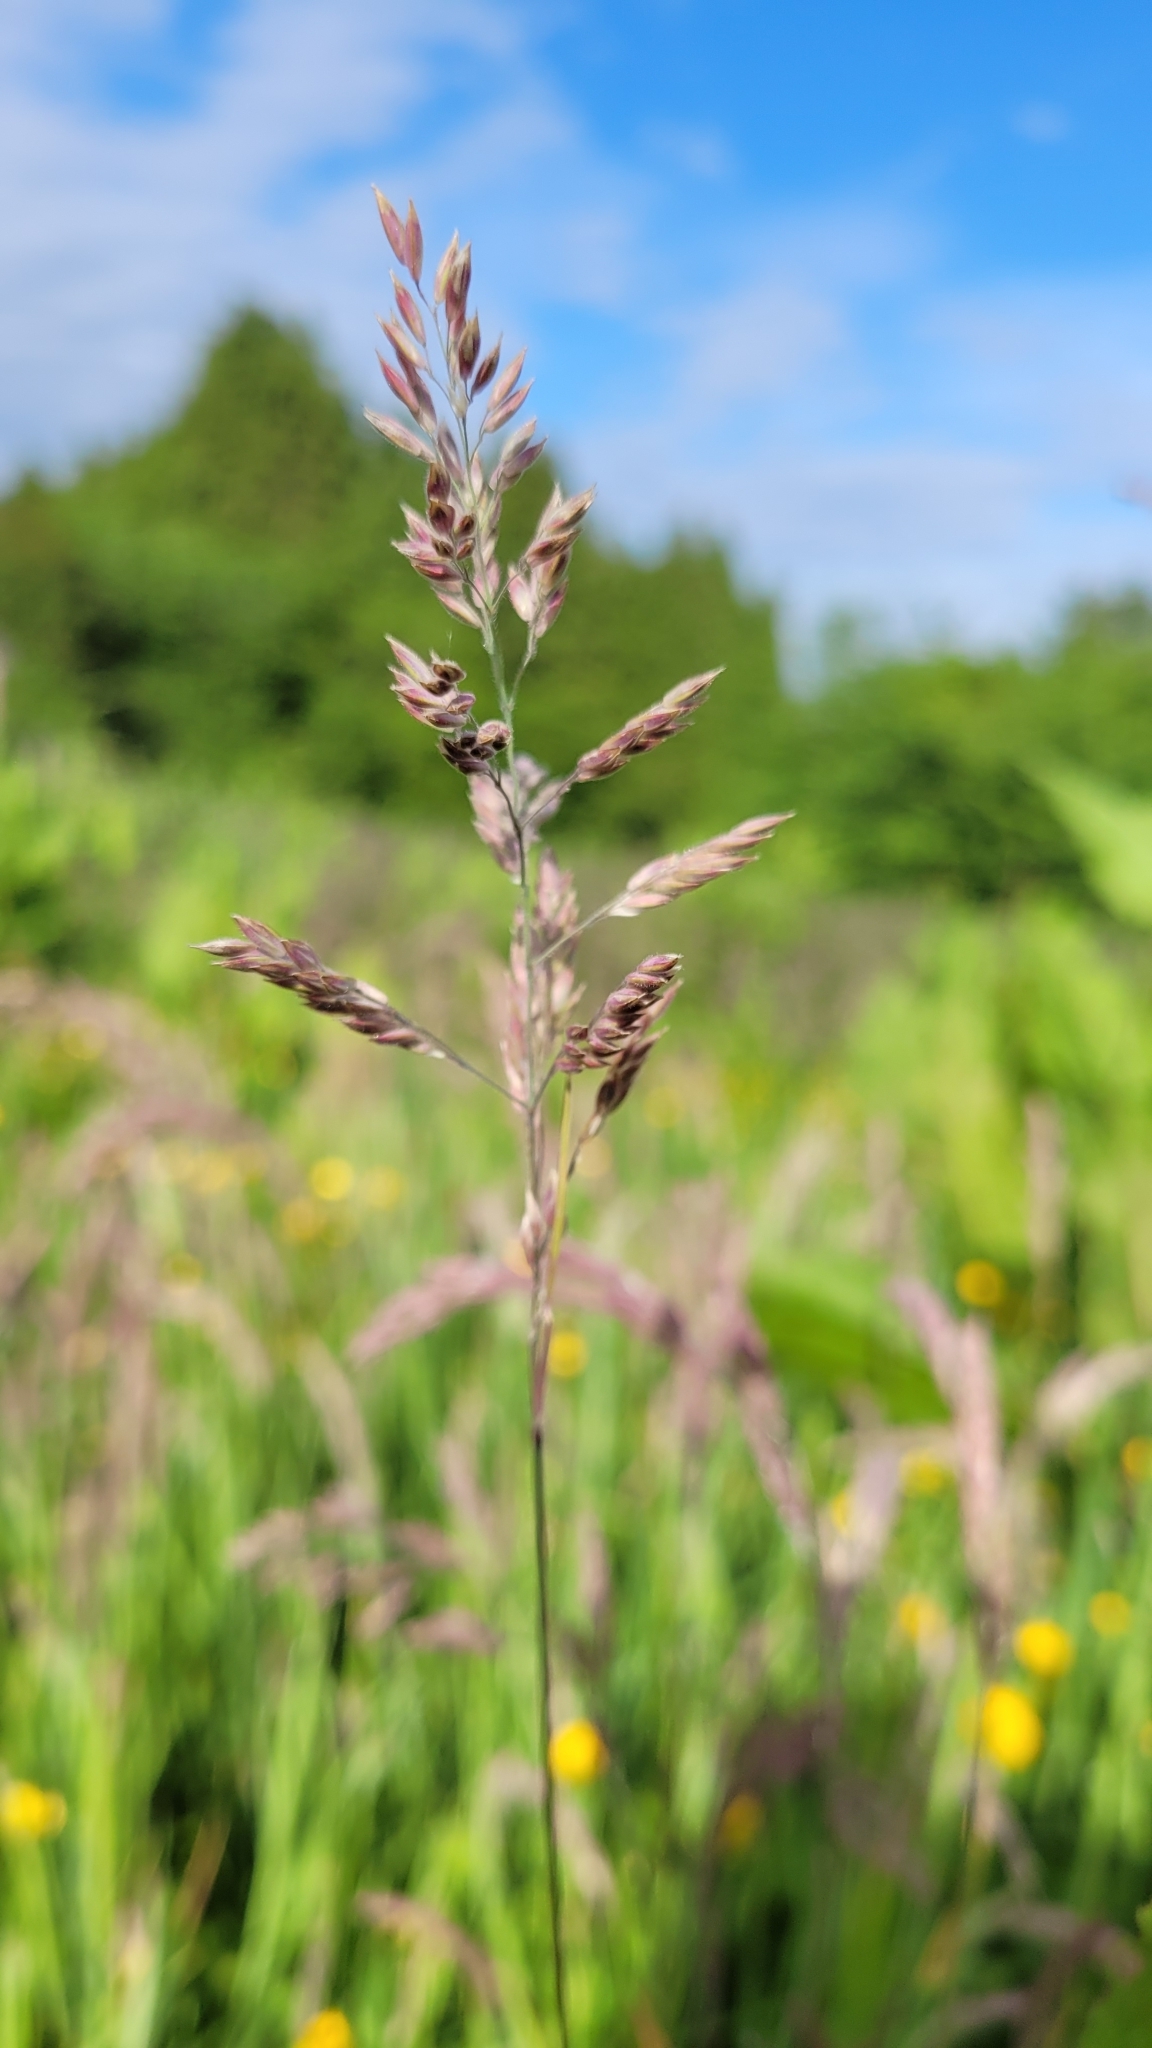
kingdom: Plantae
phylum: Tracheophyta
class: Liliopsida
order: Poales
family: Poaceae
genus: Holcus
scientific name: Holcus lanatus
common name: Yorkshire-fog
